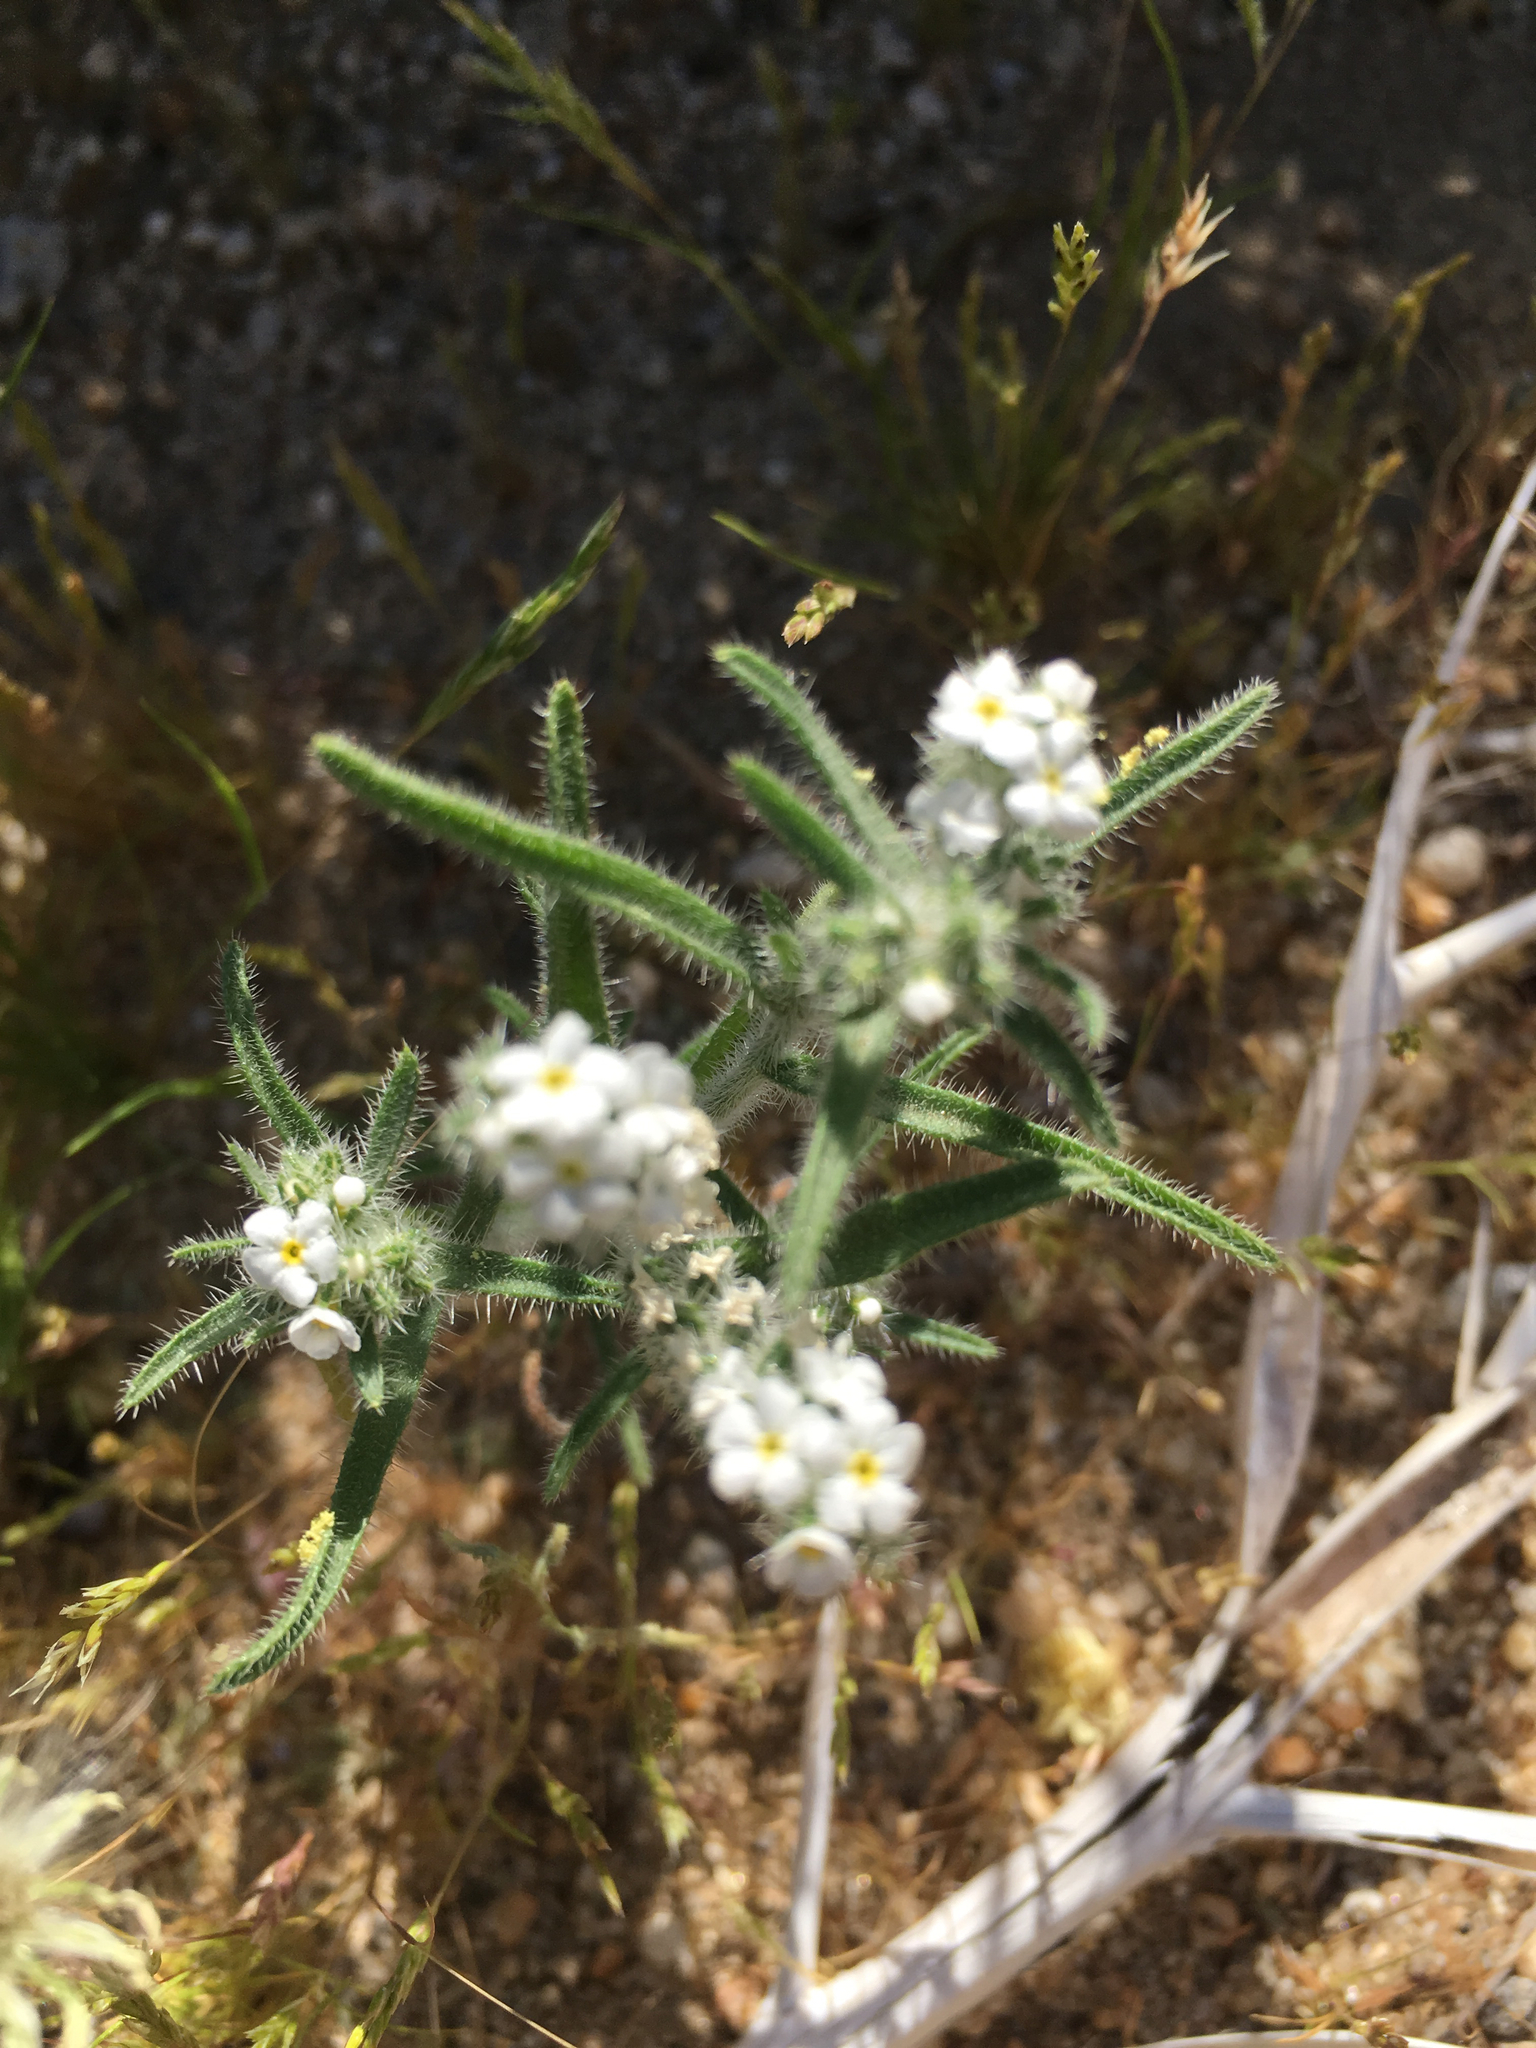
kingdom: Plantae
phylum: Tracheophyta
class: Magnoliopsida
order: Boraginales
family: Boraginaceae
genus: Johnstonella
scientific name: Johnstonella angustifolia
